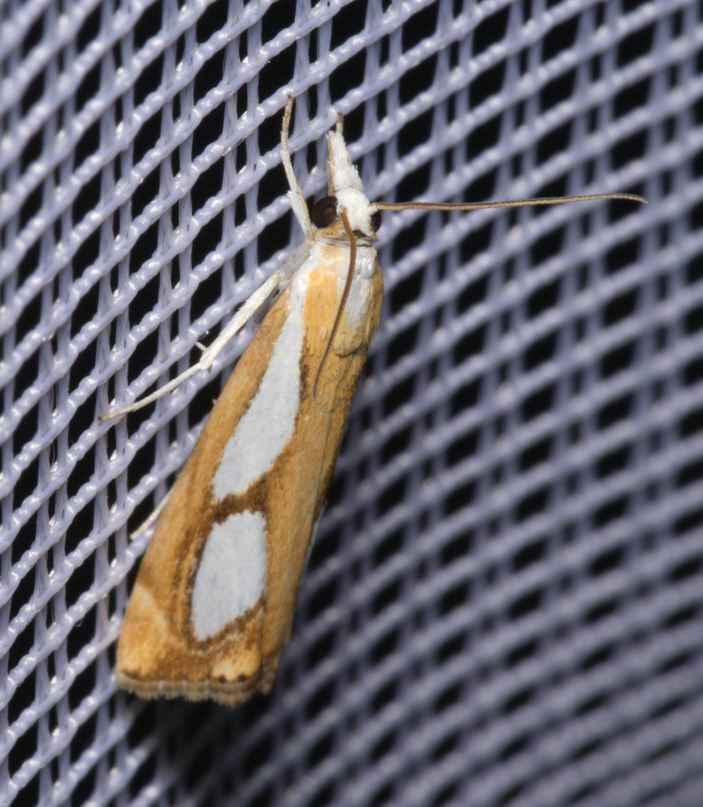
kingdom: Animalia
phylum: Arthropoda
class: Insecta
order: Lepidoptera
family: Crambidae
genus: Catoptria
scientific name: Catoptria pinella
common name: Pearl grass-veneer
